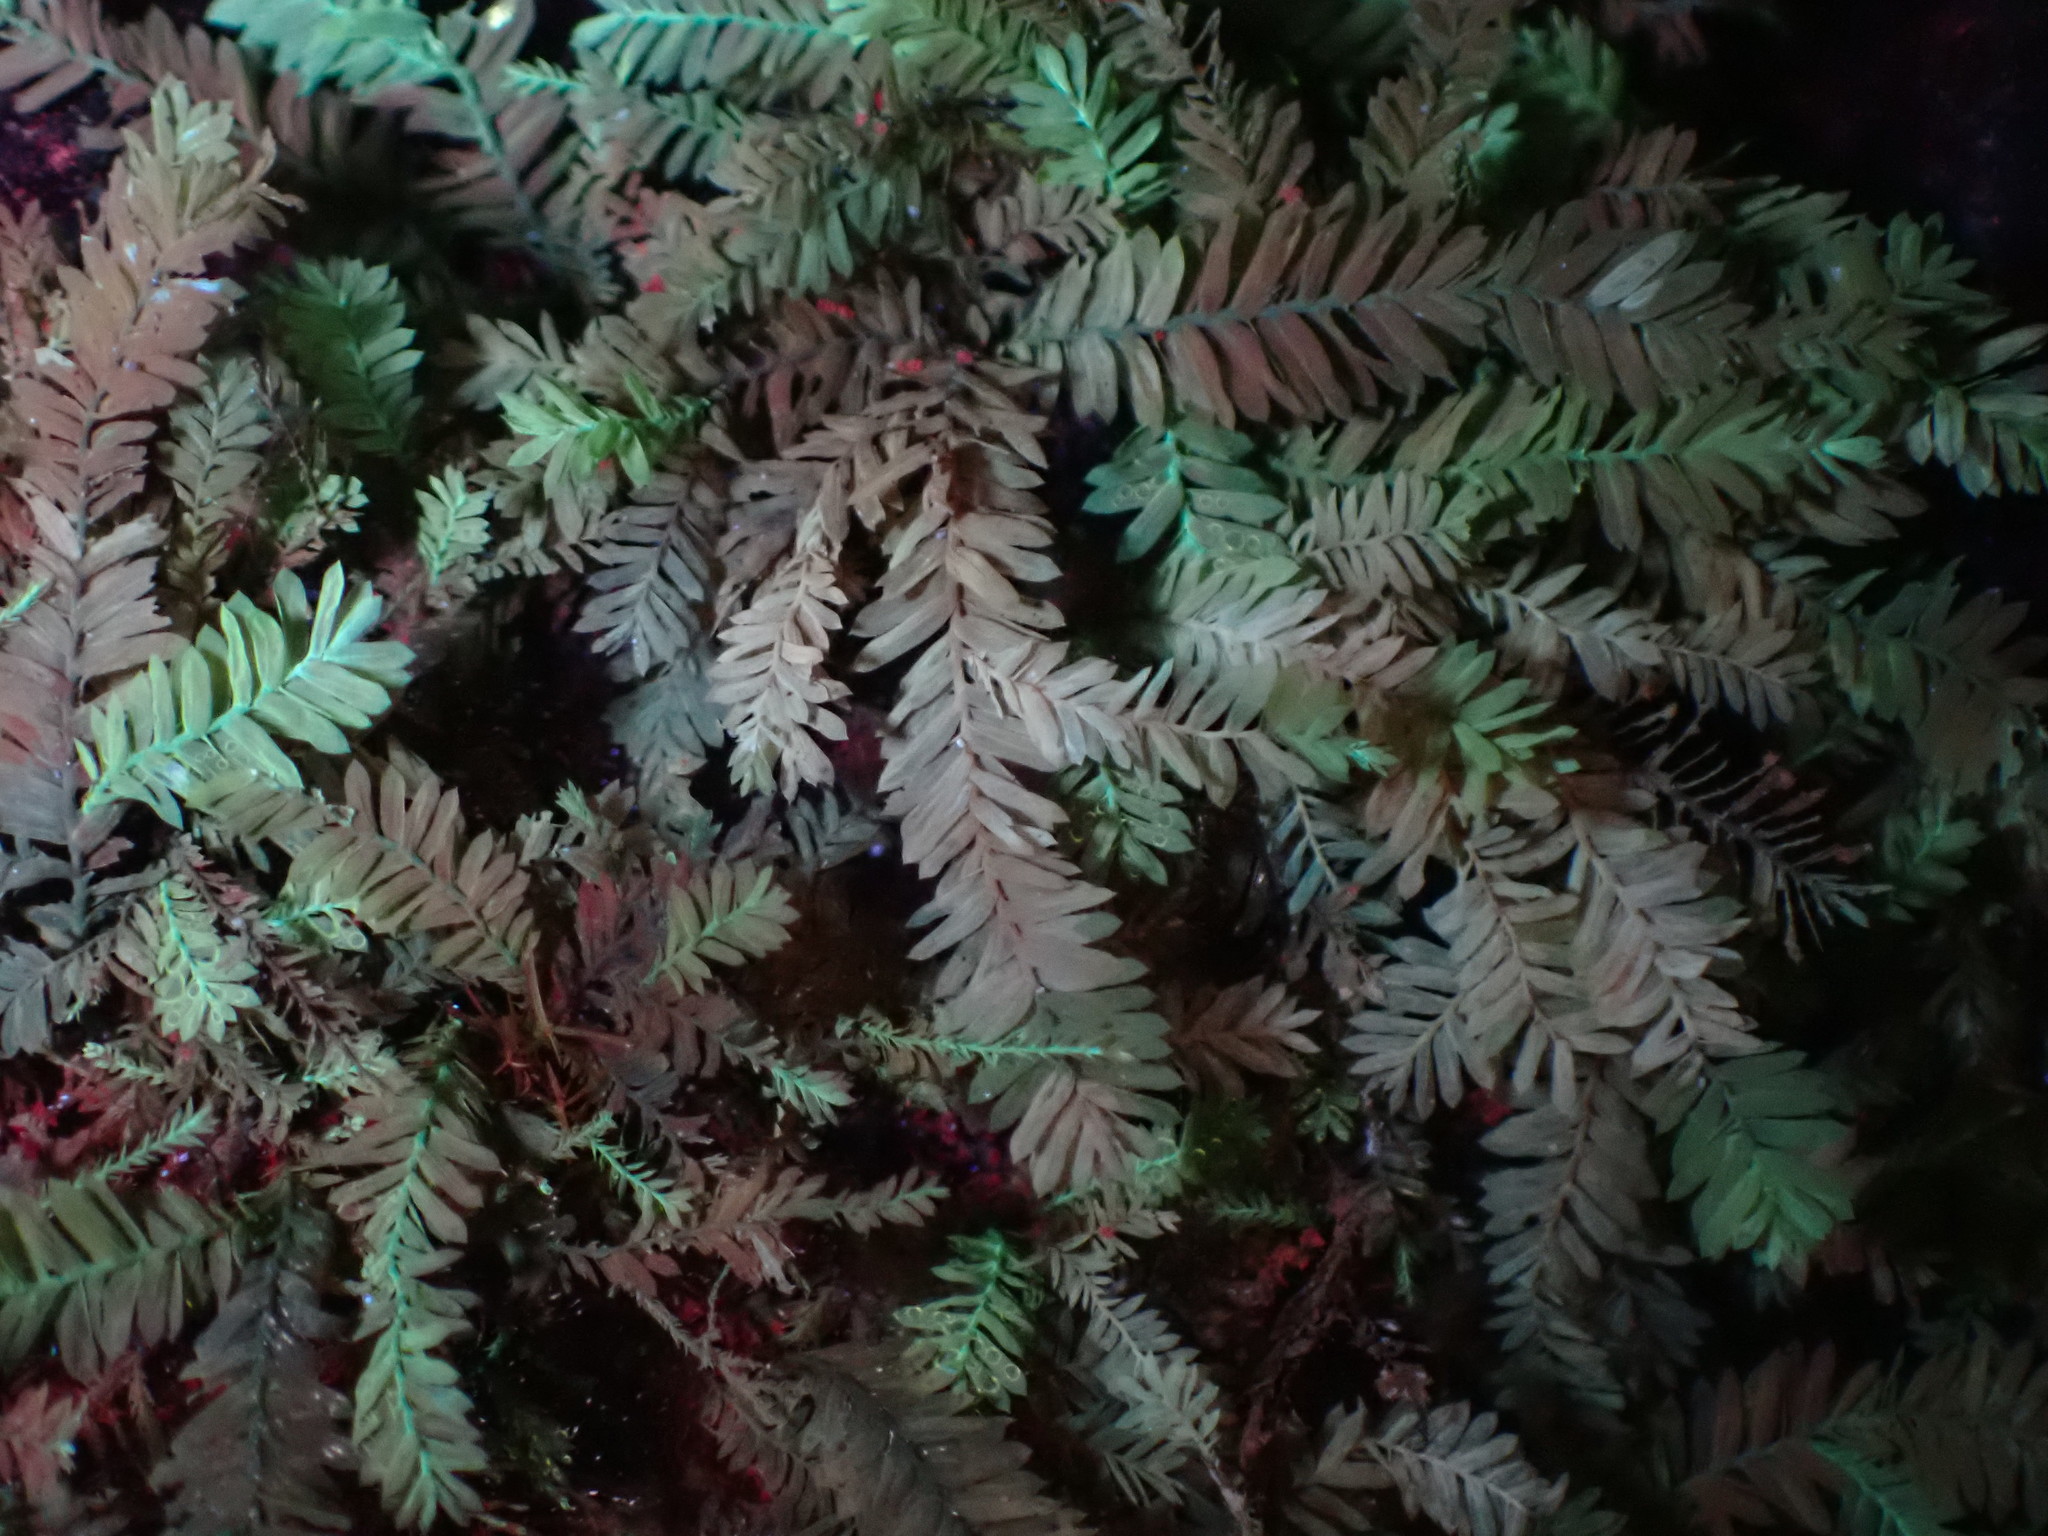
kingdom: Plantae
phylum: Bryophyta
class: Bryopsida
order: Hypnales
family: Neckeraceae
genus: Dannorrisia
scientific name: Dannorrisia bigelovii
